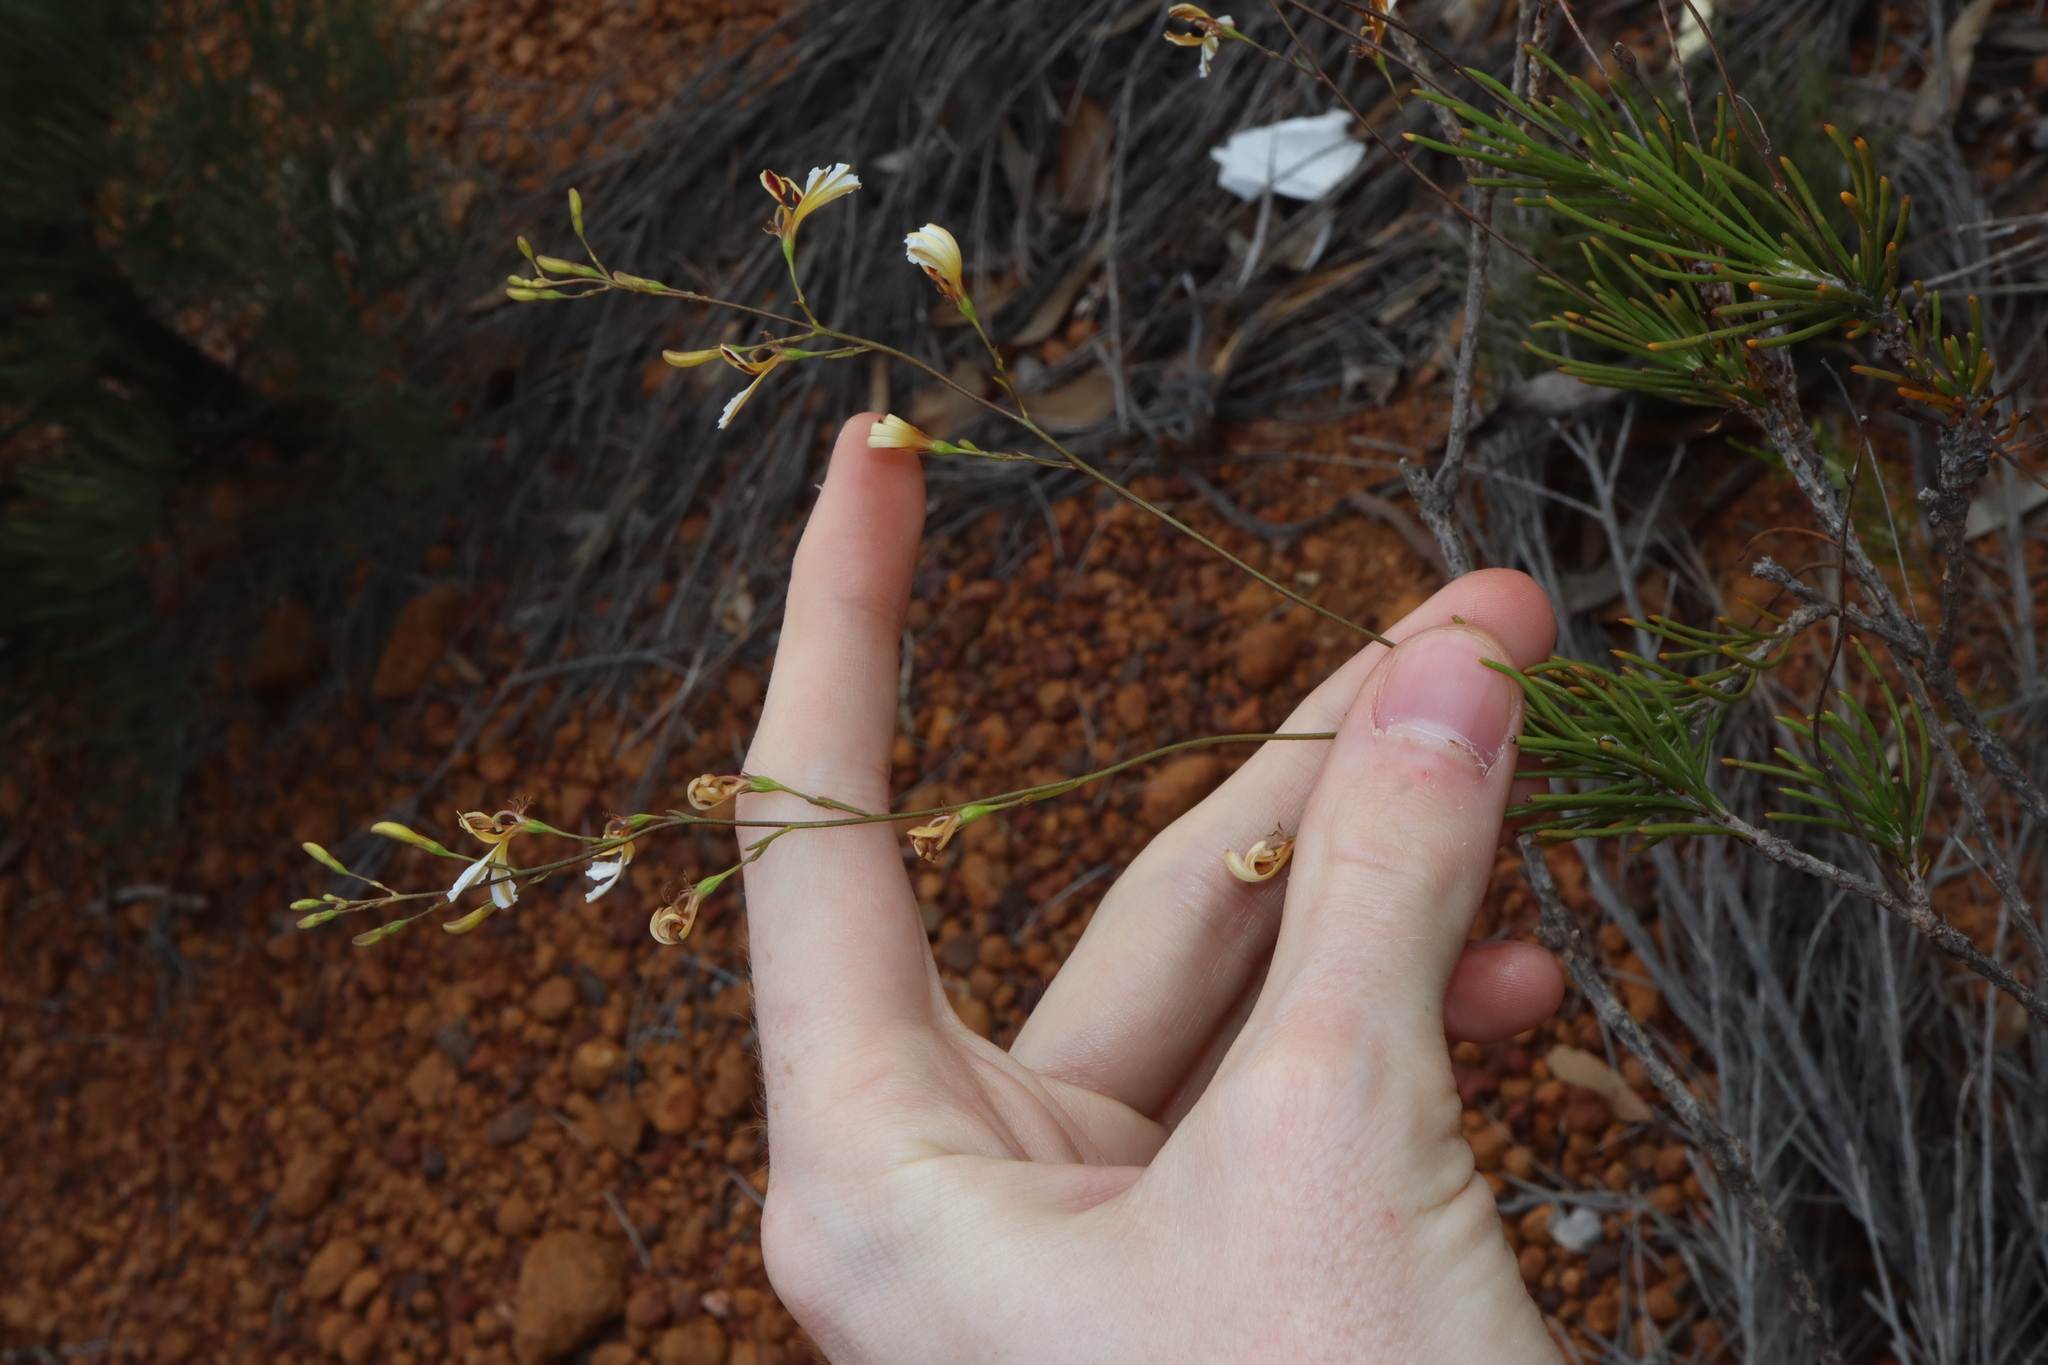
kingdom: Plantae
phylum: Tracheophyta
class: Magnoliopsida
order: Asterales
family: Goodeniaceae
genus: Goodenia
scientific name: Goodenia pinifolia
